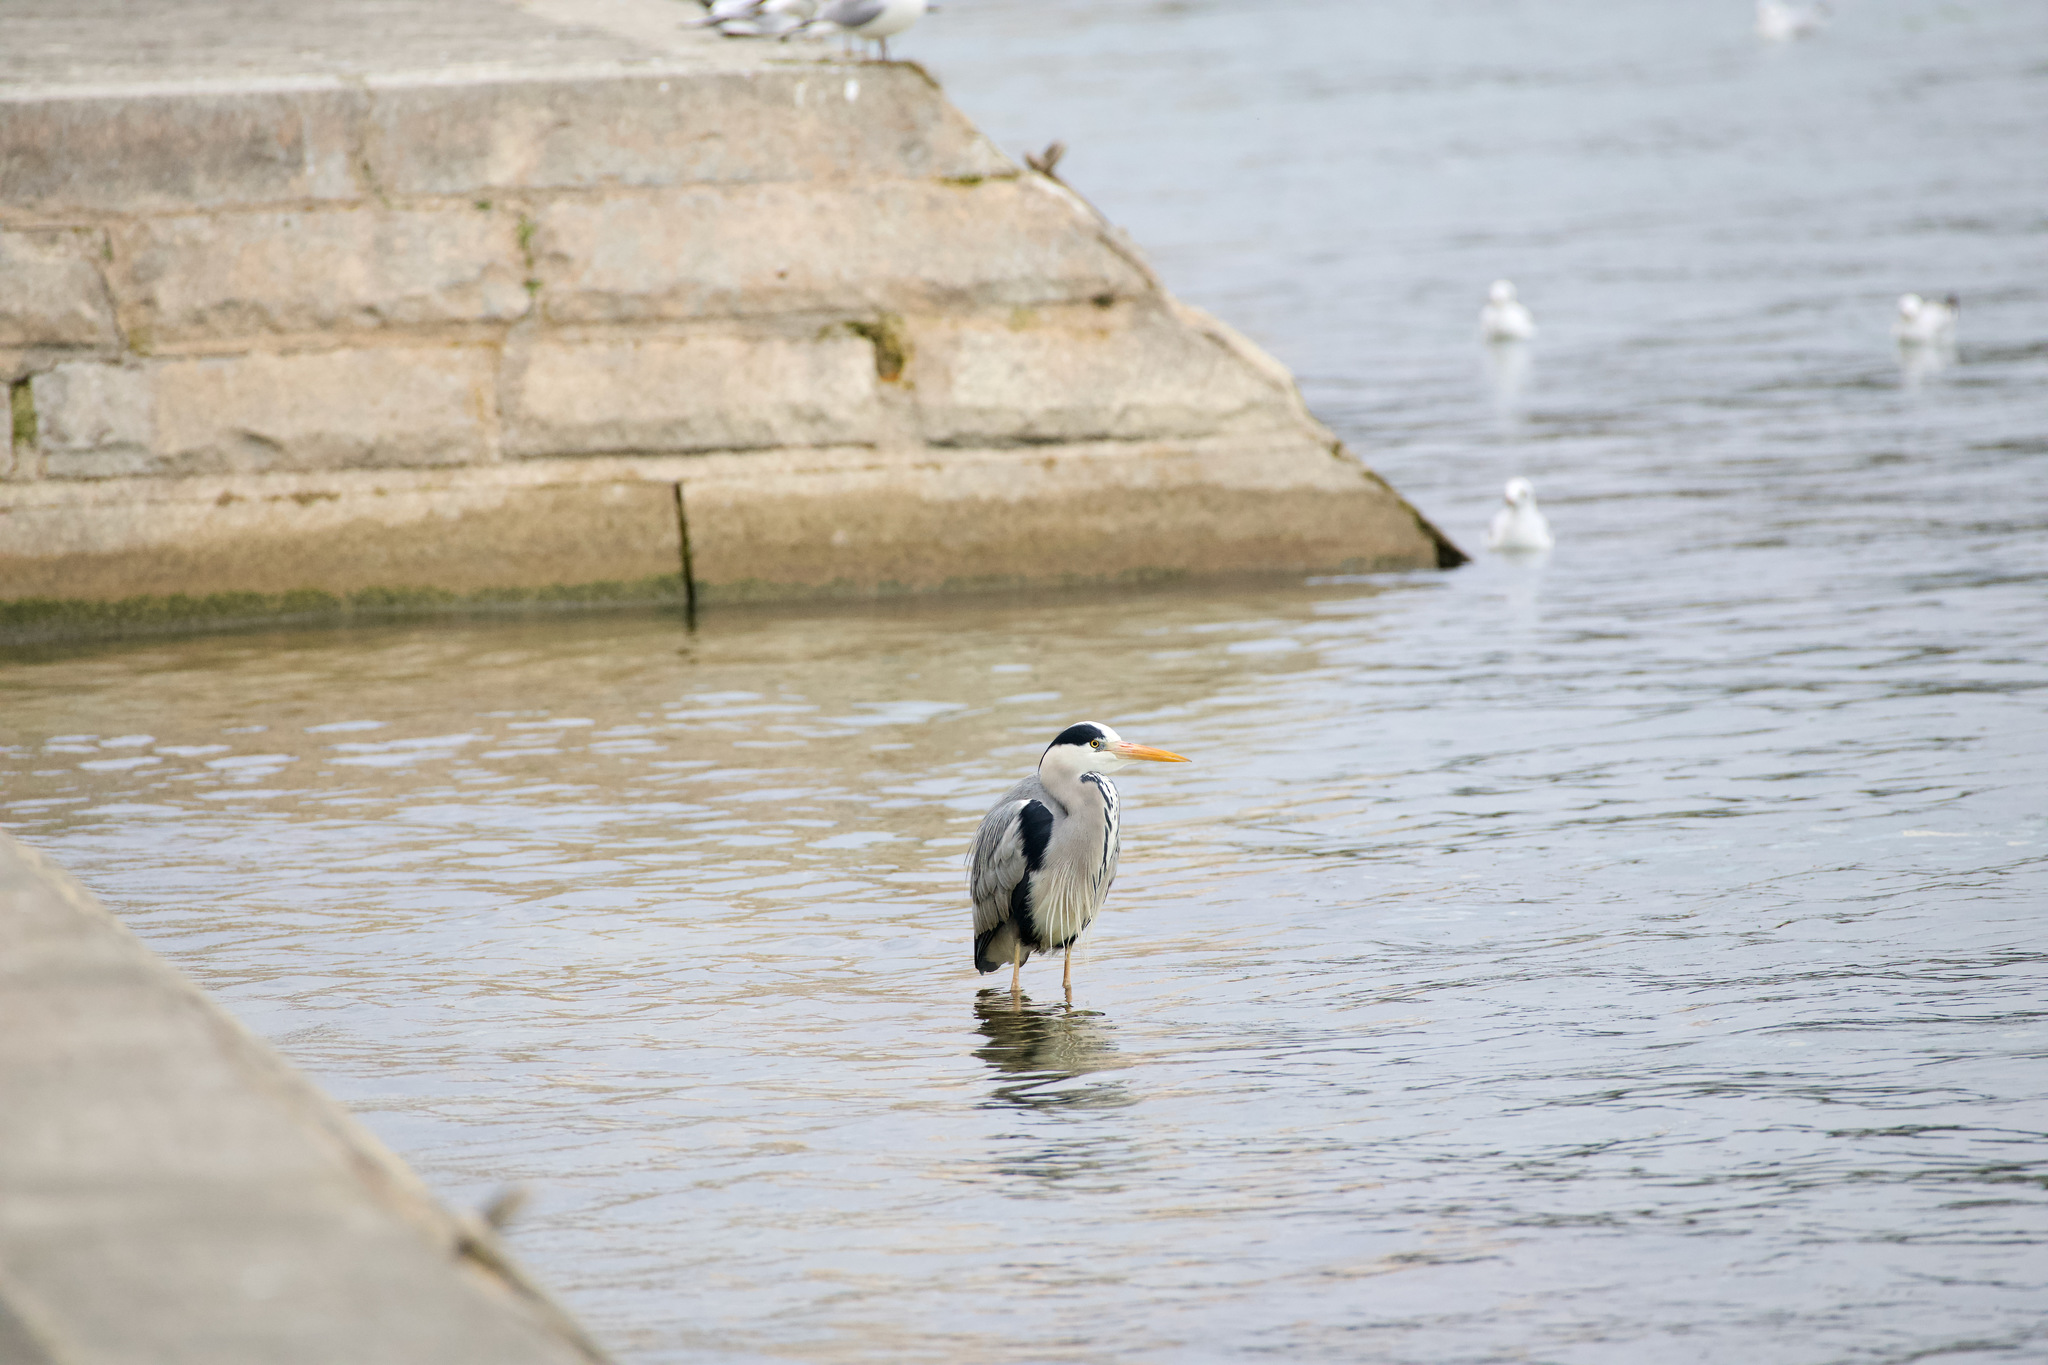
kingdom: Animalia
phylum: Chordata
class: Aves
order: Pelecaniformes
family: Ardeidae
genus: Ardea
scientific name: Ardea cinerea
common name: Grey heron
